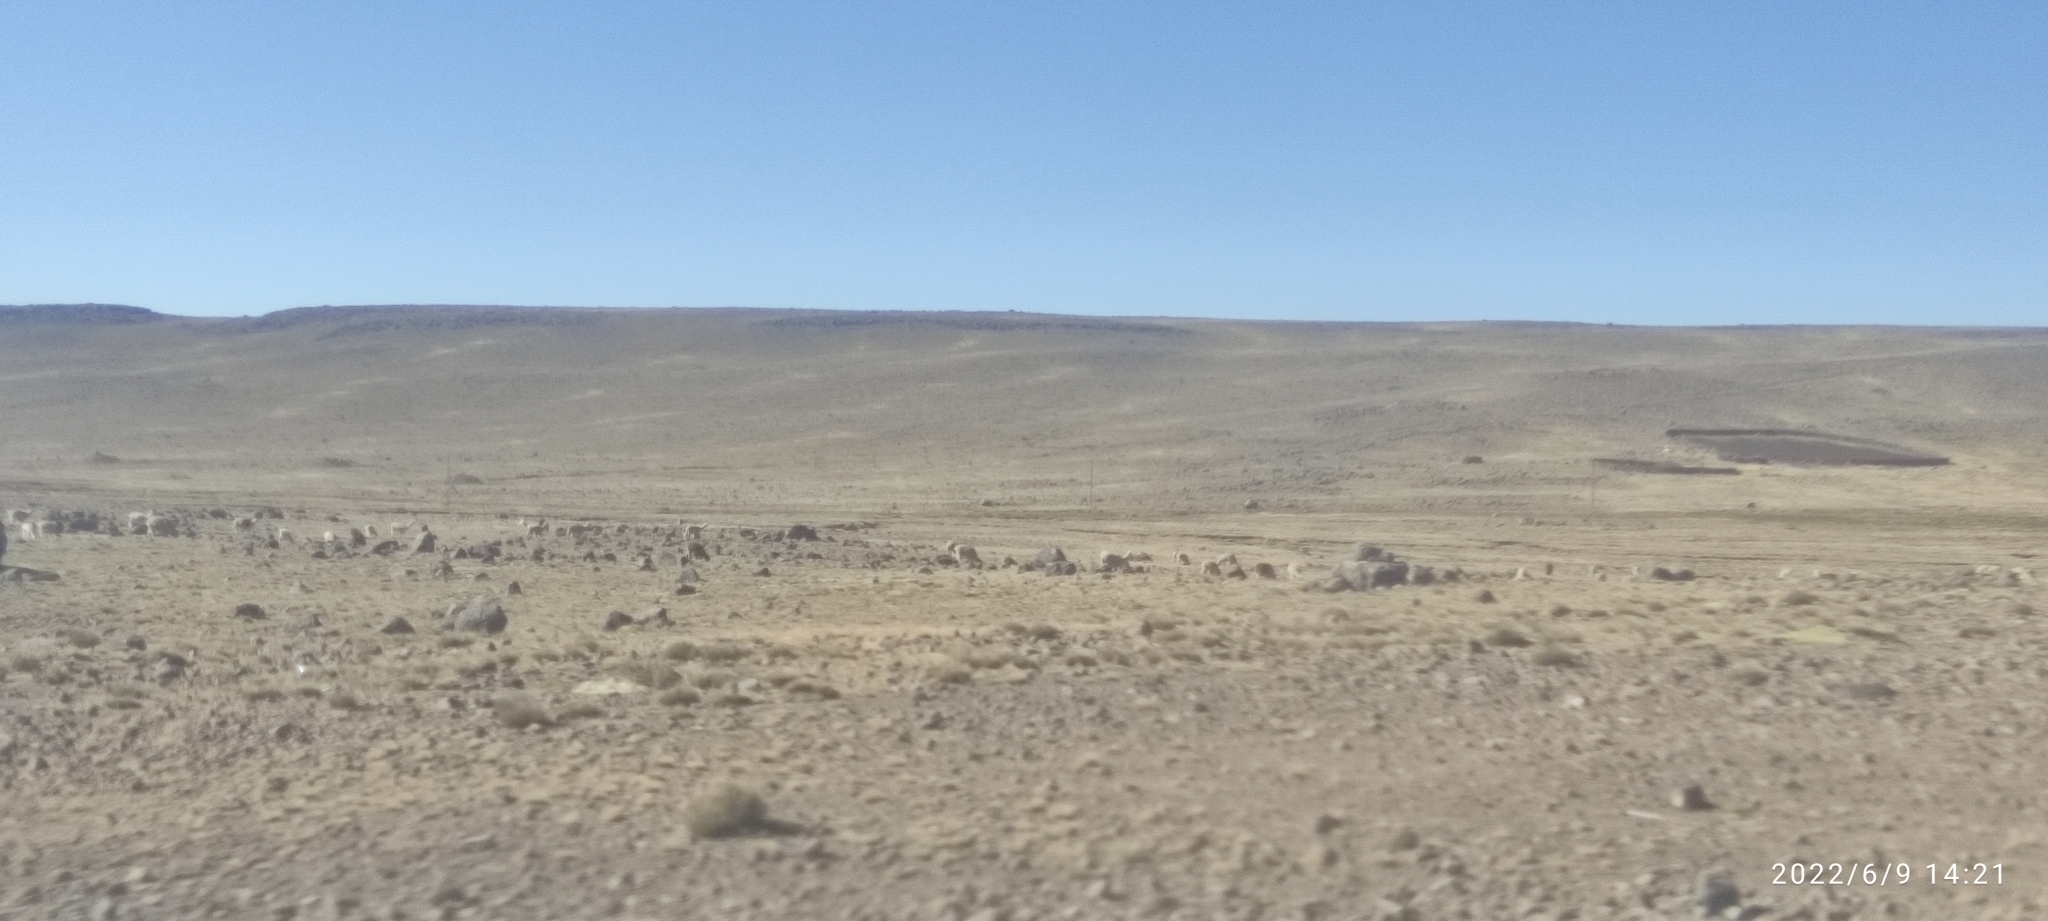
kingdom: Animalia
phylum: Chordata
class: Mammalia
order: Artiodactyla
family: Camelidae
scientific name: Camelidae
